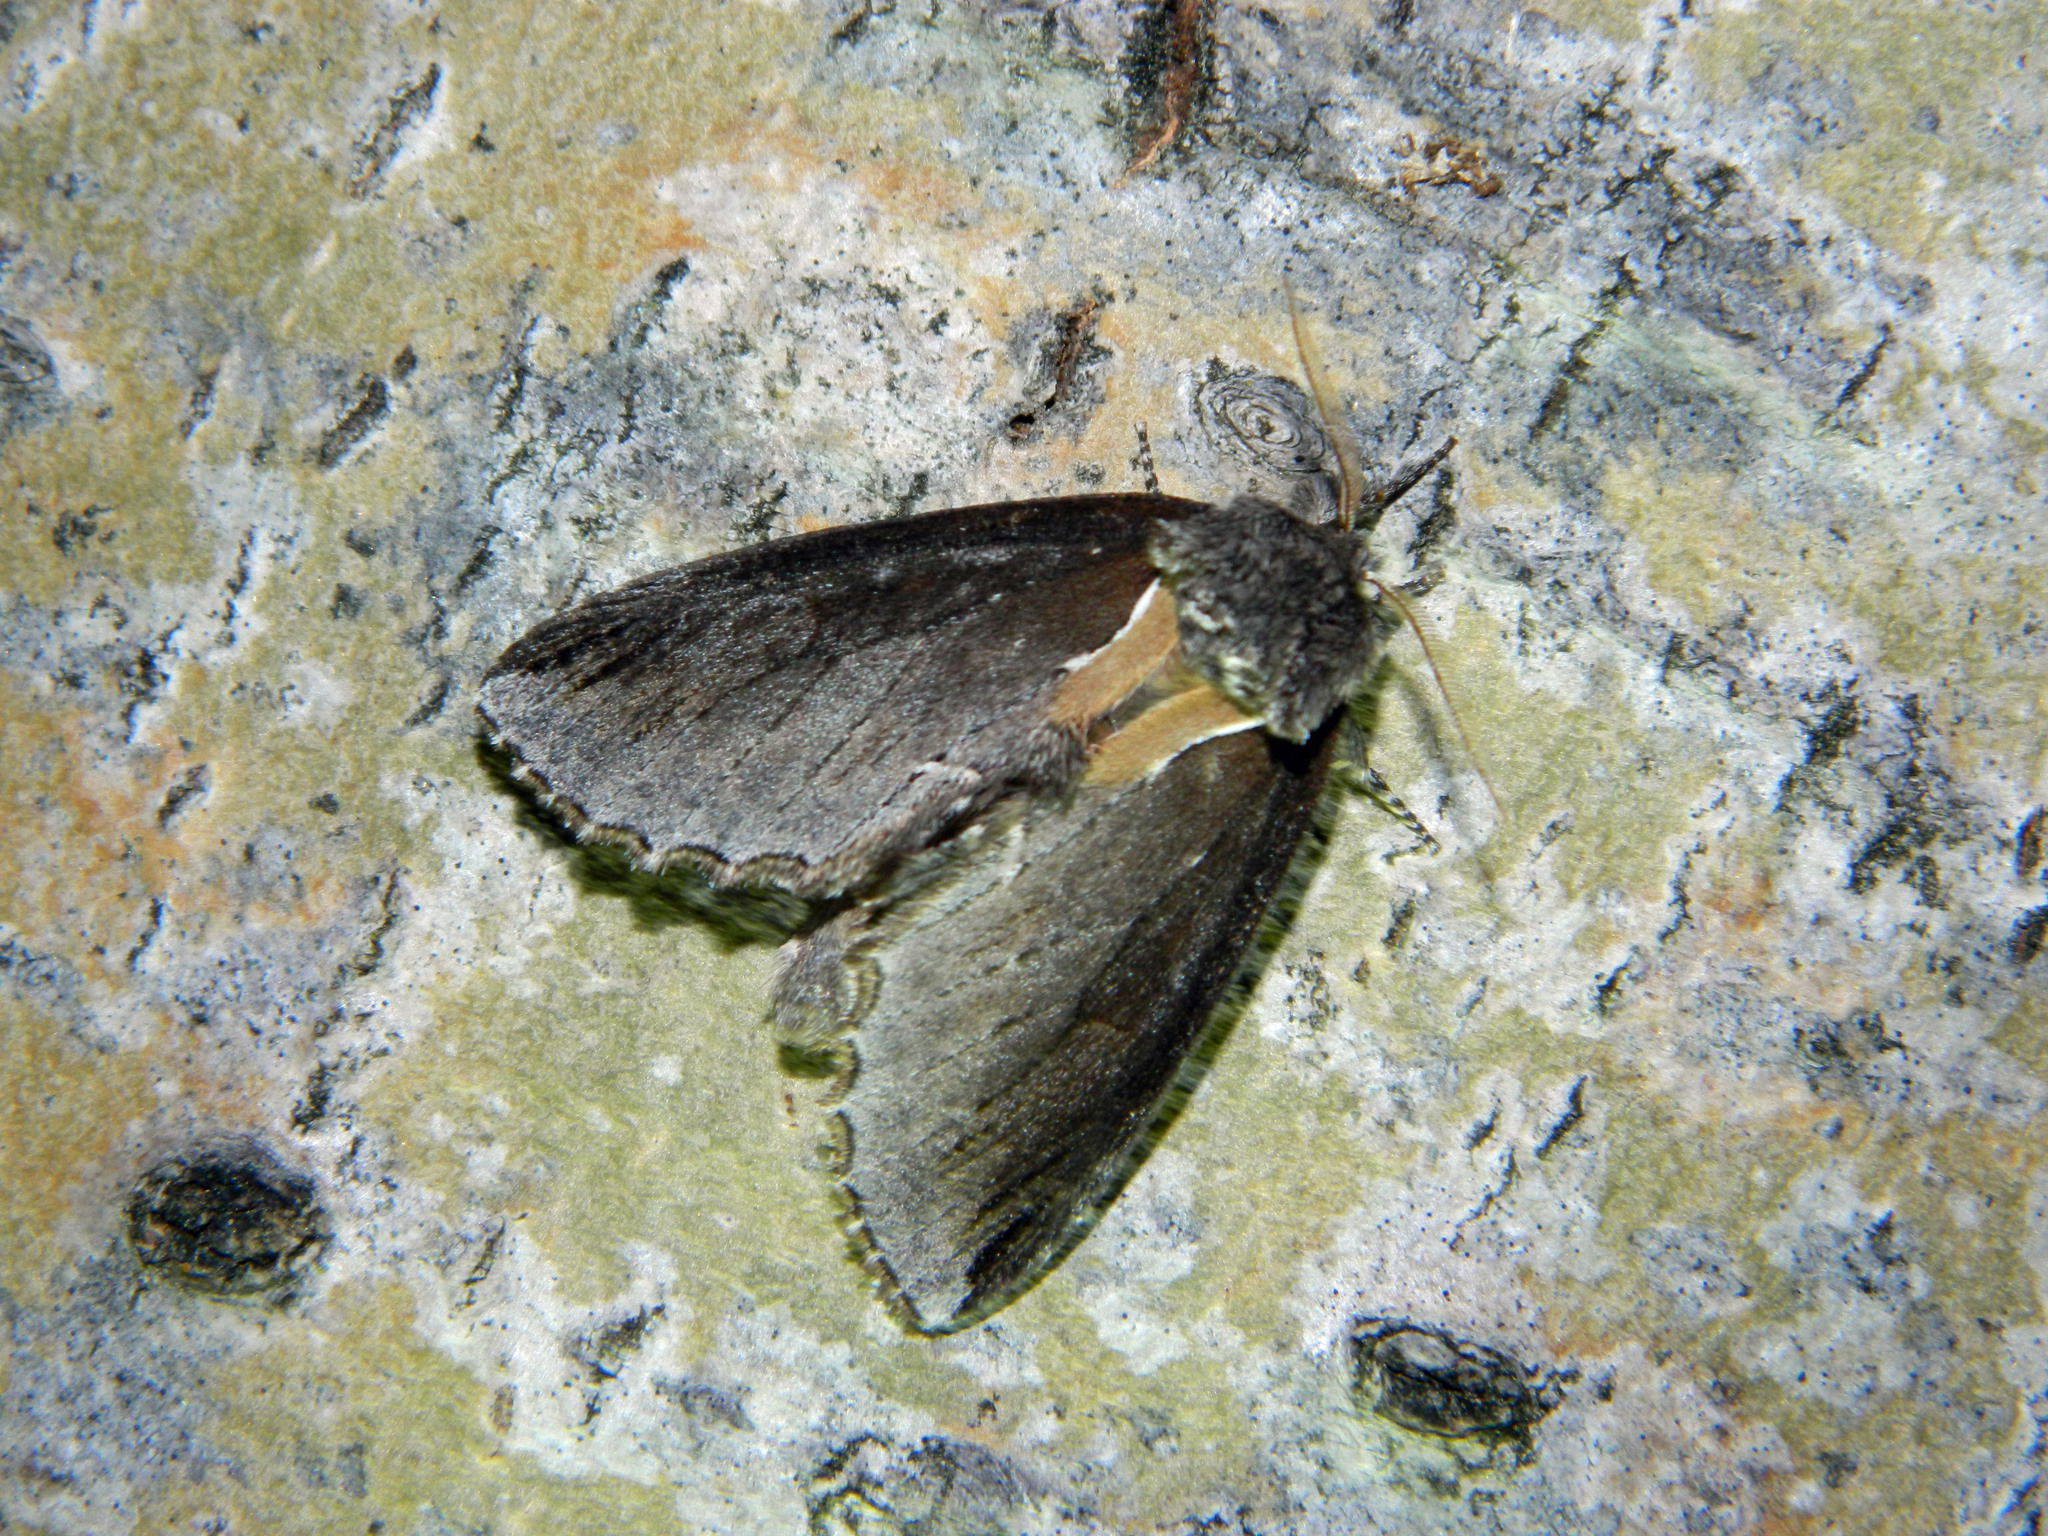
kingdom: Animalia
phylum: Arthropoda
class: Insecta
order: Lepidoptera
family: Notodontidae
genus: Pheosidea
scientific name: Pheosidea elegans
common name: Elegant prominent
